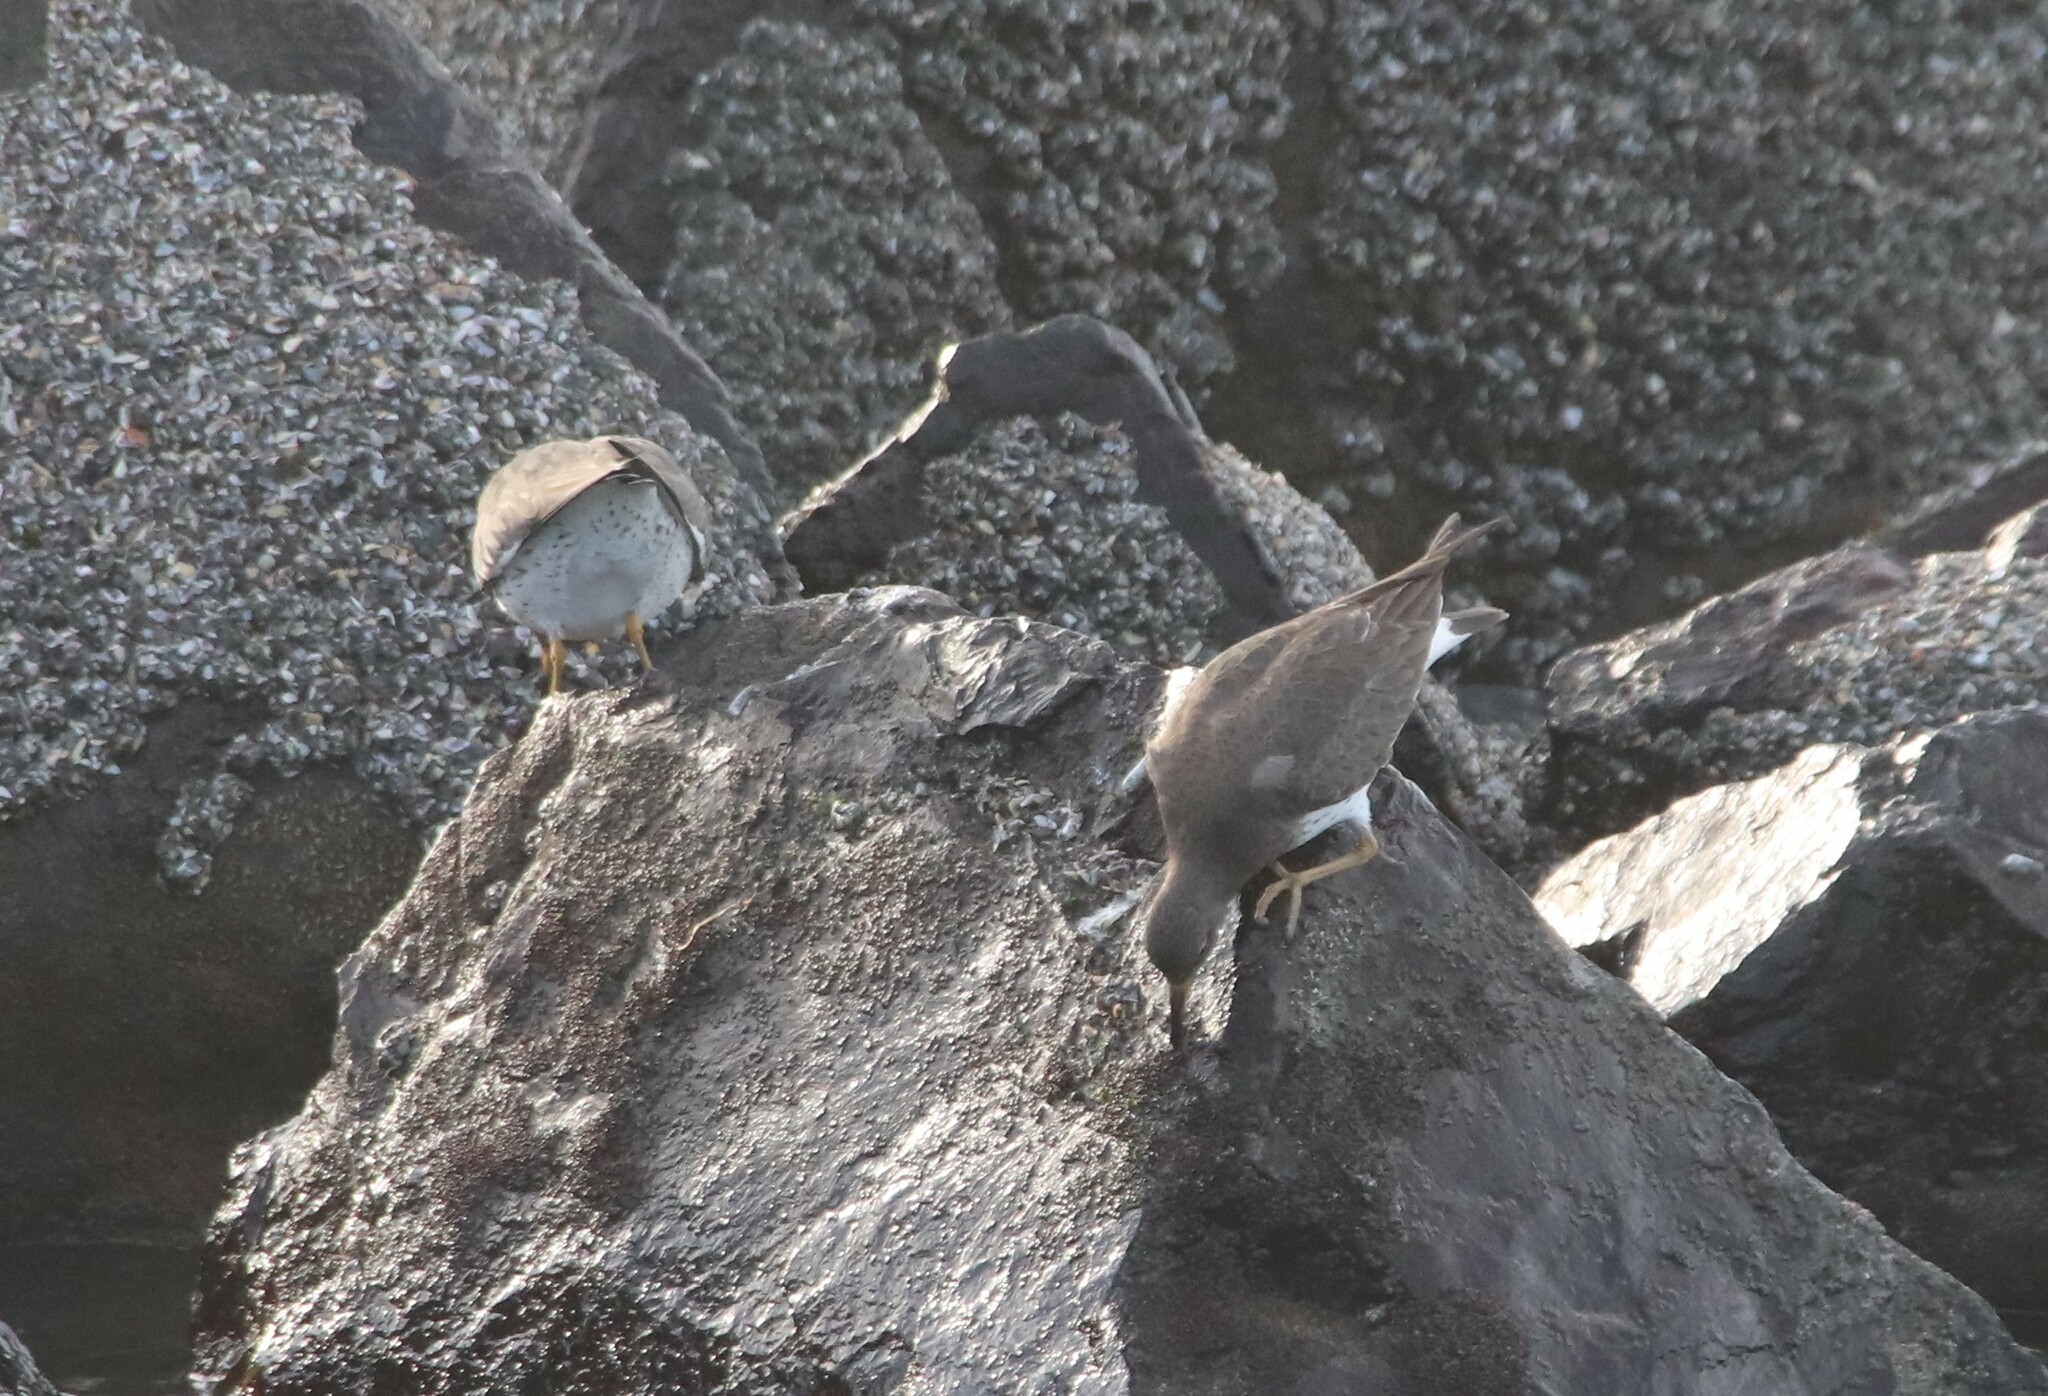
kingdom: Animalia
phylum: Chordata
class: Aves
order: Charadriiformes
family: Scolopacidae
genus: Calidris
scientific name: Calidris virgata
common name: Surfbird
